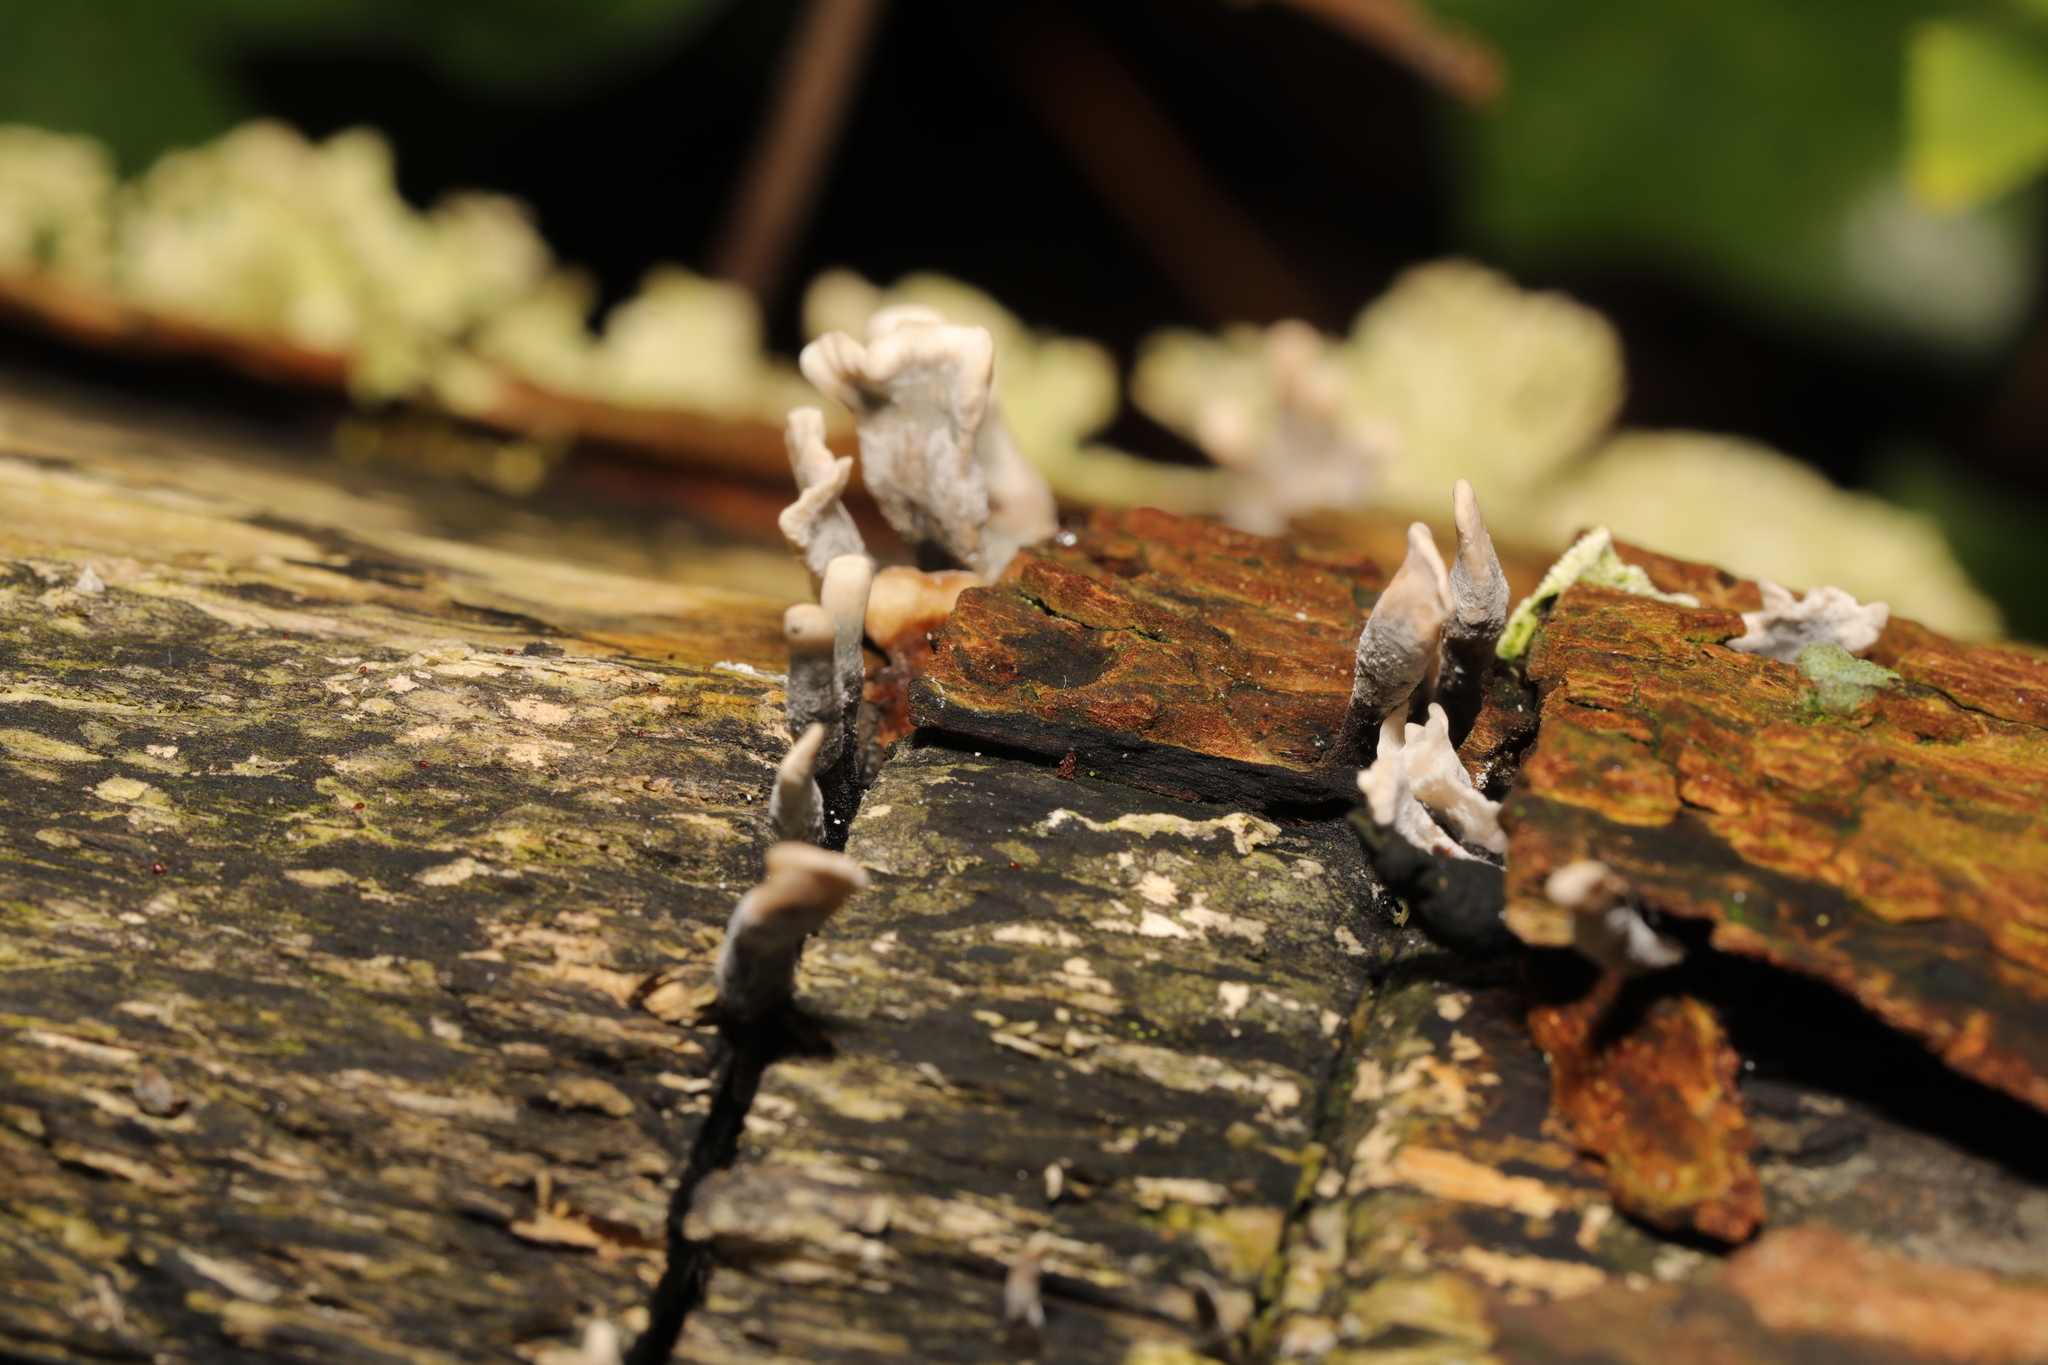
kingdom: Fungi
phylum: Ascomycota
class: Sordariomycetes
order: Xylariales
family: Xylariaceae
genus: Xylaria
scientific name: Xylaria hypoxylon
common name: Candle-snuff fungus
